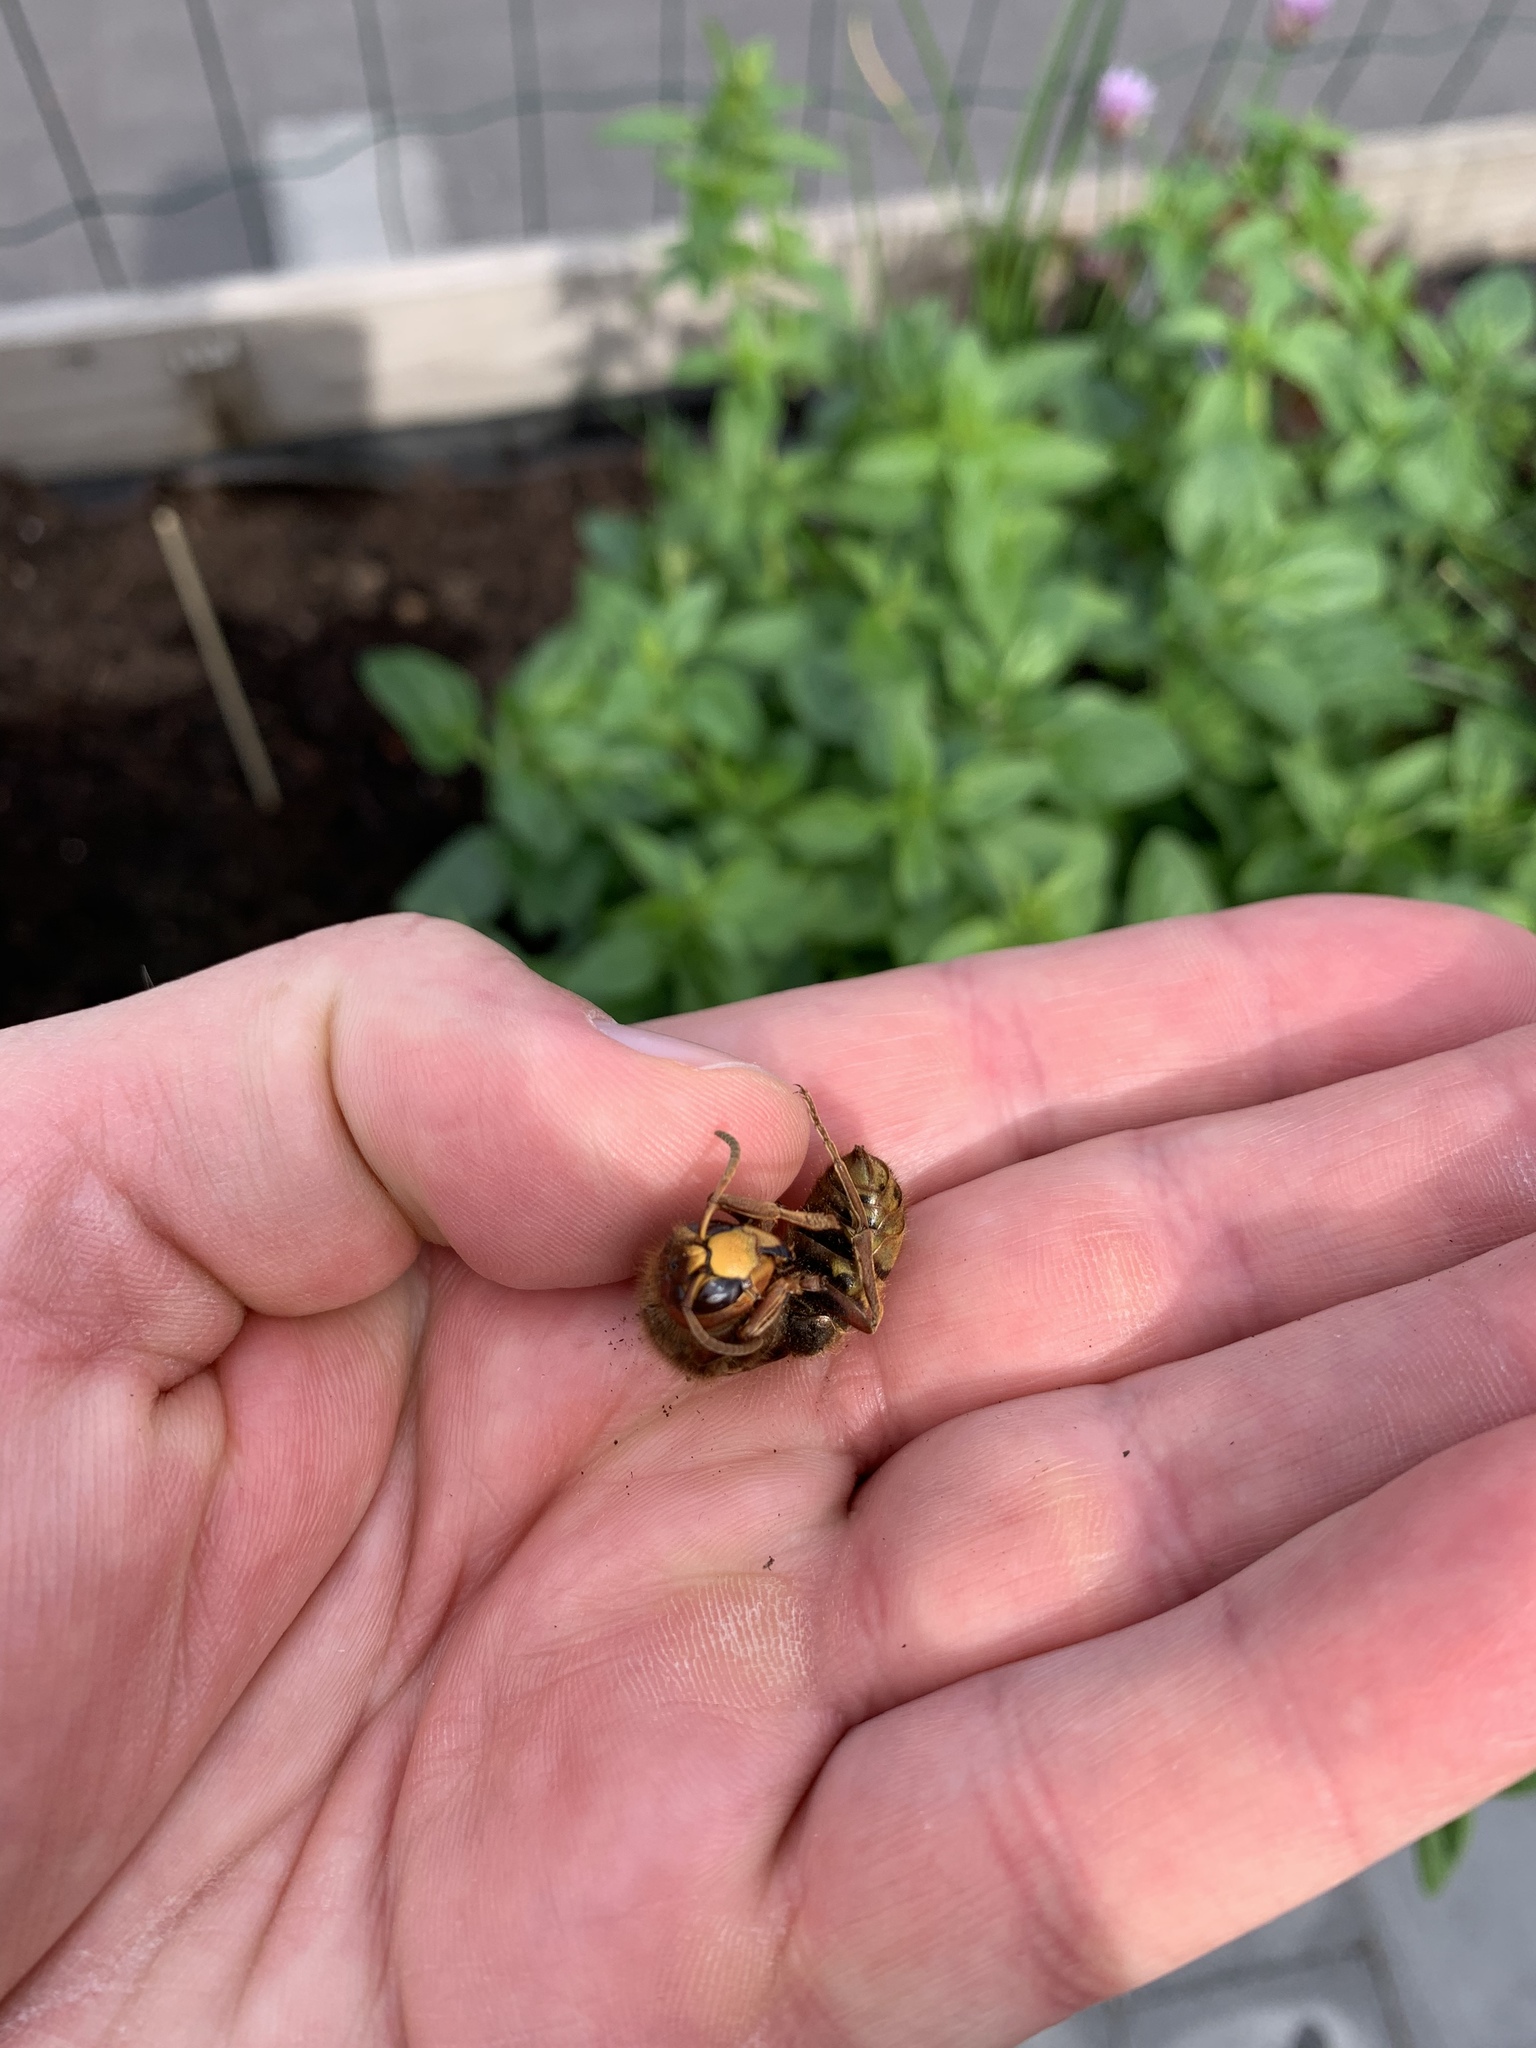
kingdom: Animalia
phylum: Arthropoda
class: Insecta
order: Hymenoptera
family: Vespidae
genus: Vespa
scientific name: Vespa crabro
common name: Hornet
